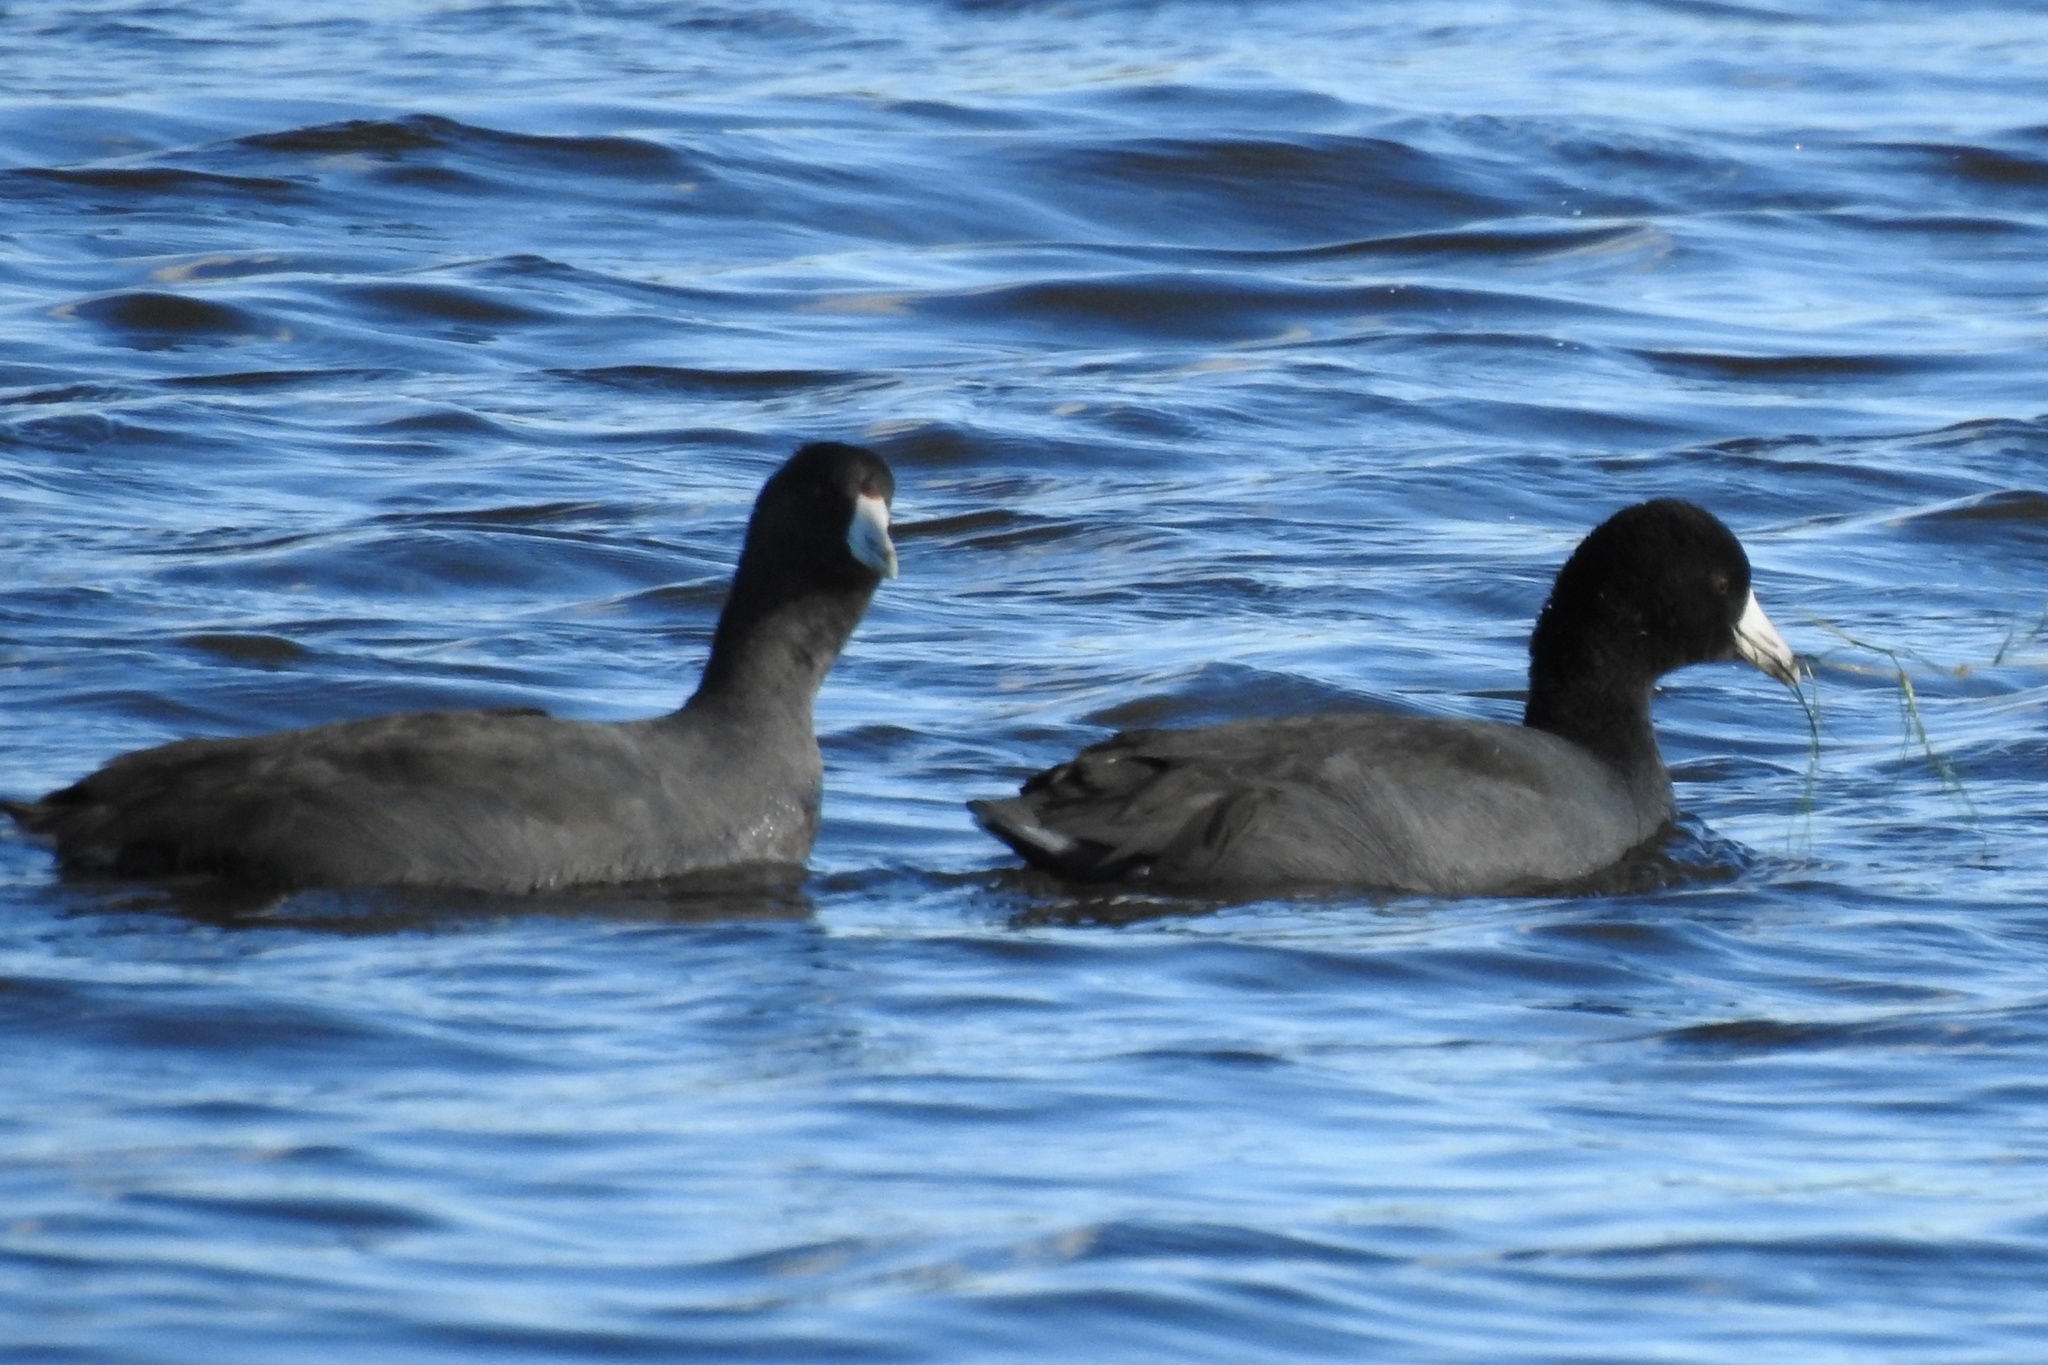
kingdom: Animalia
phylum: Chordata
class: Aves
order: Gruiformes
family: Rallidae
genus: Fulica
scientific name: Fulica americana
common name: American coot
